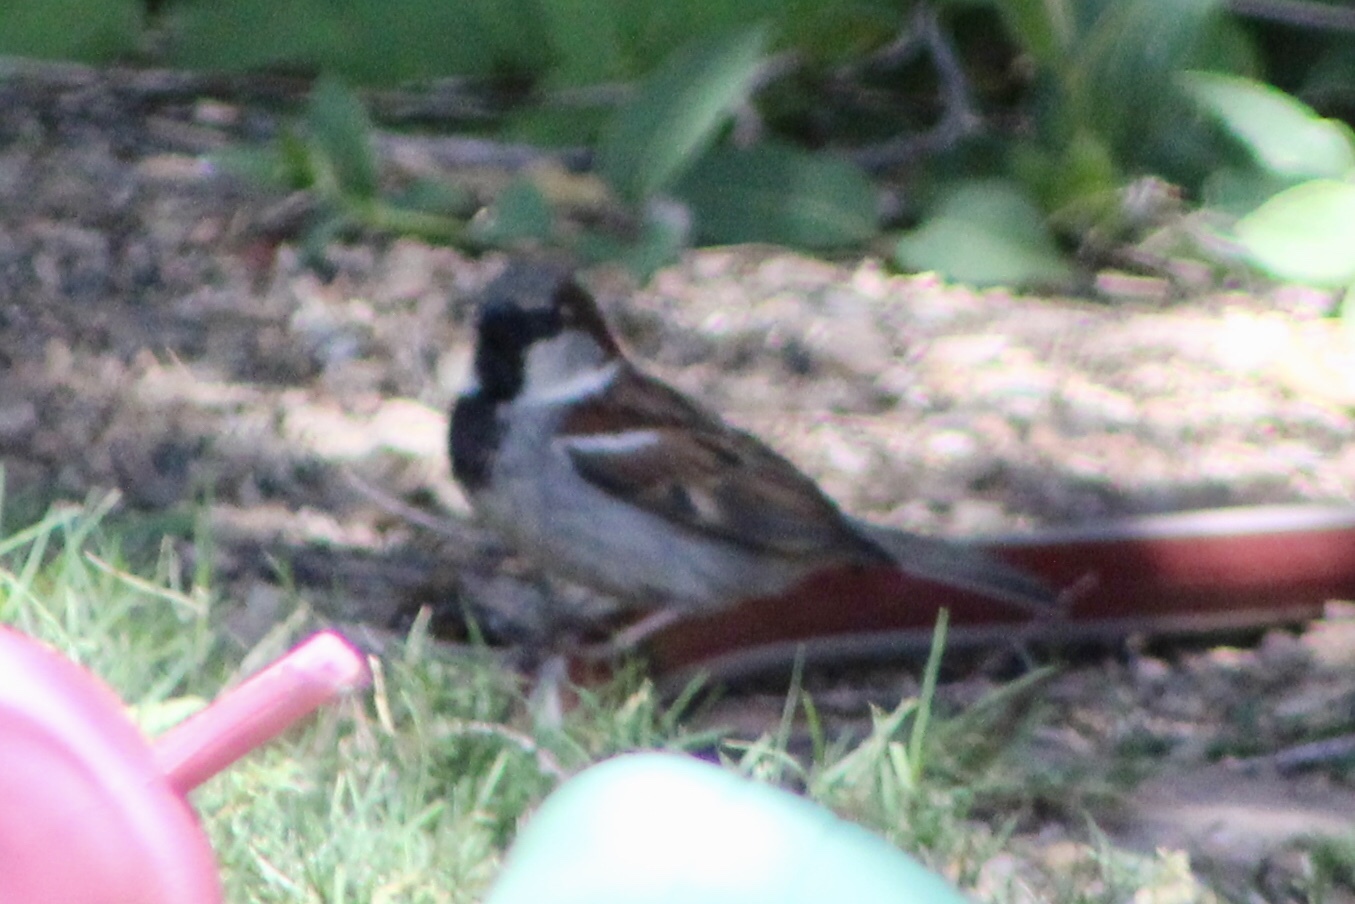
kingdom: Animalia
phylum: Chordata
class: Aves
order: Passeriformes
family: Passeridae
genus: Passer
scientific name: Passer domesticus
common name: House sparrow
